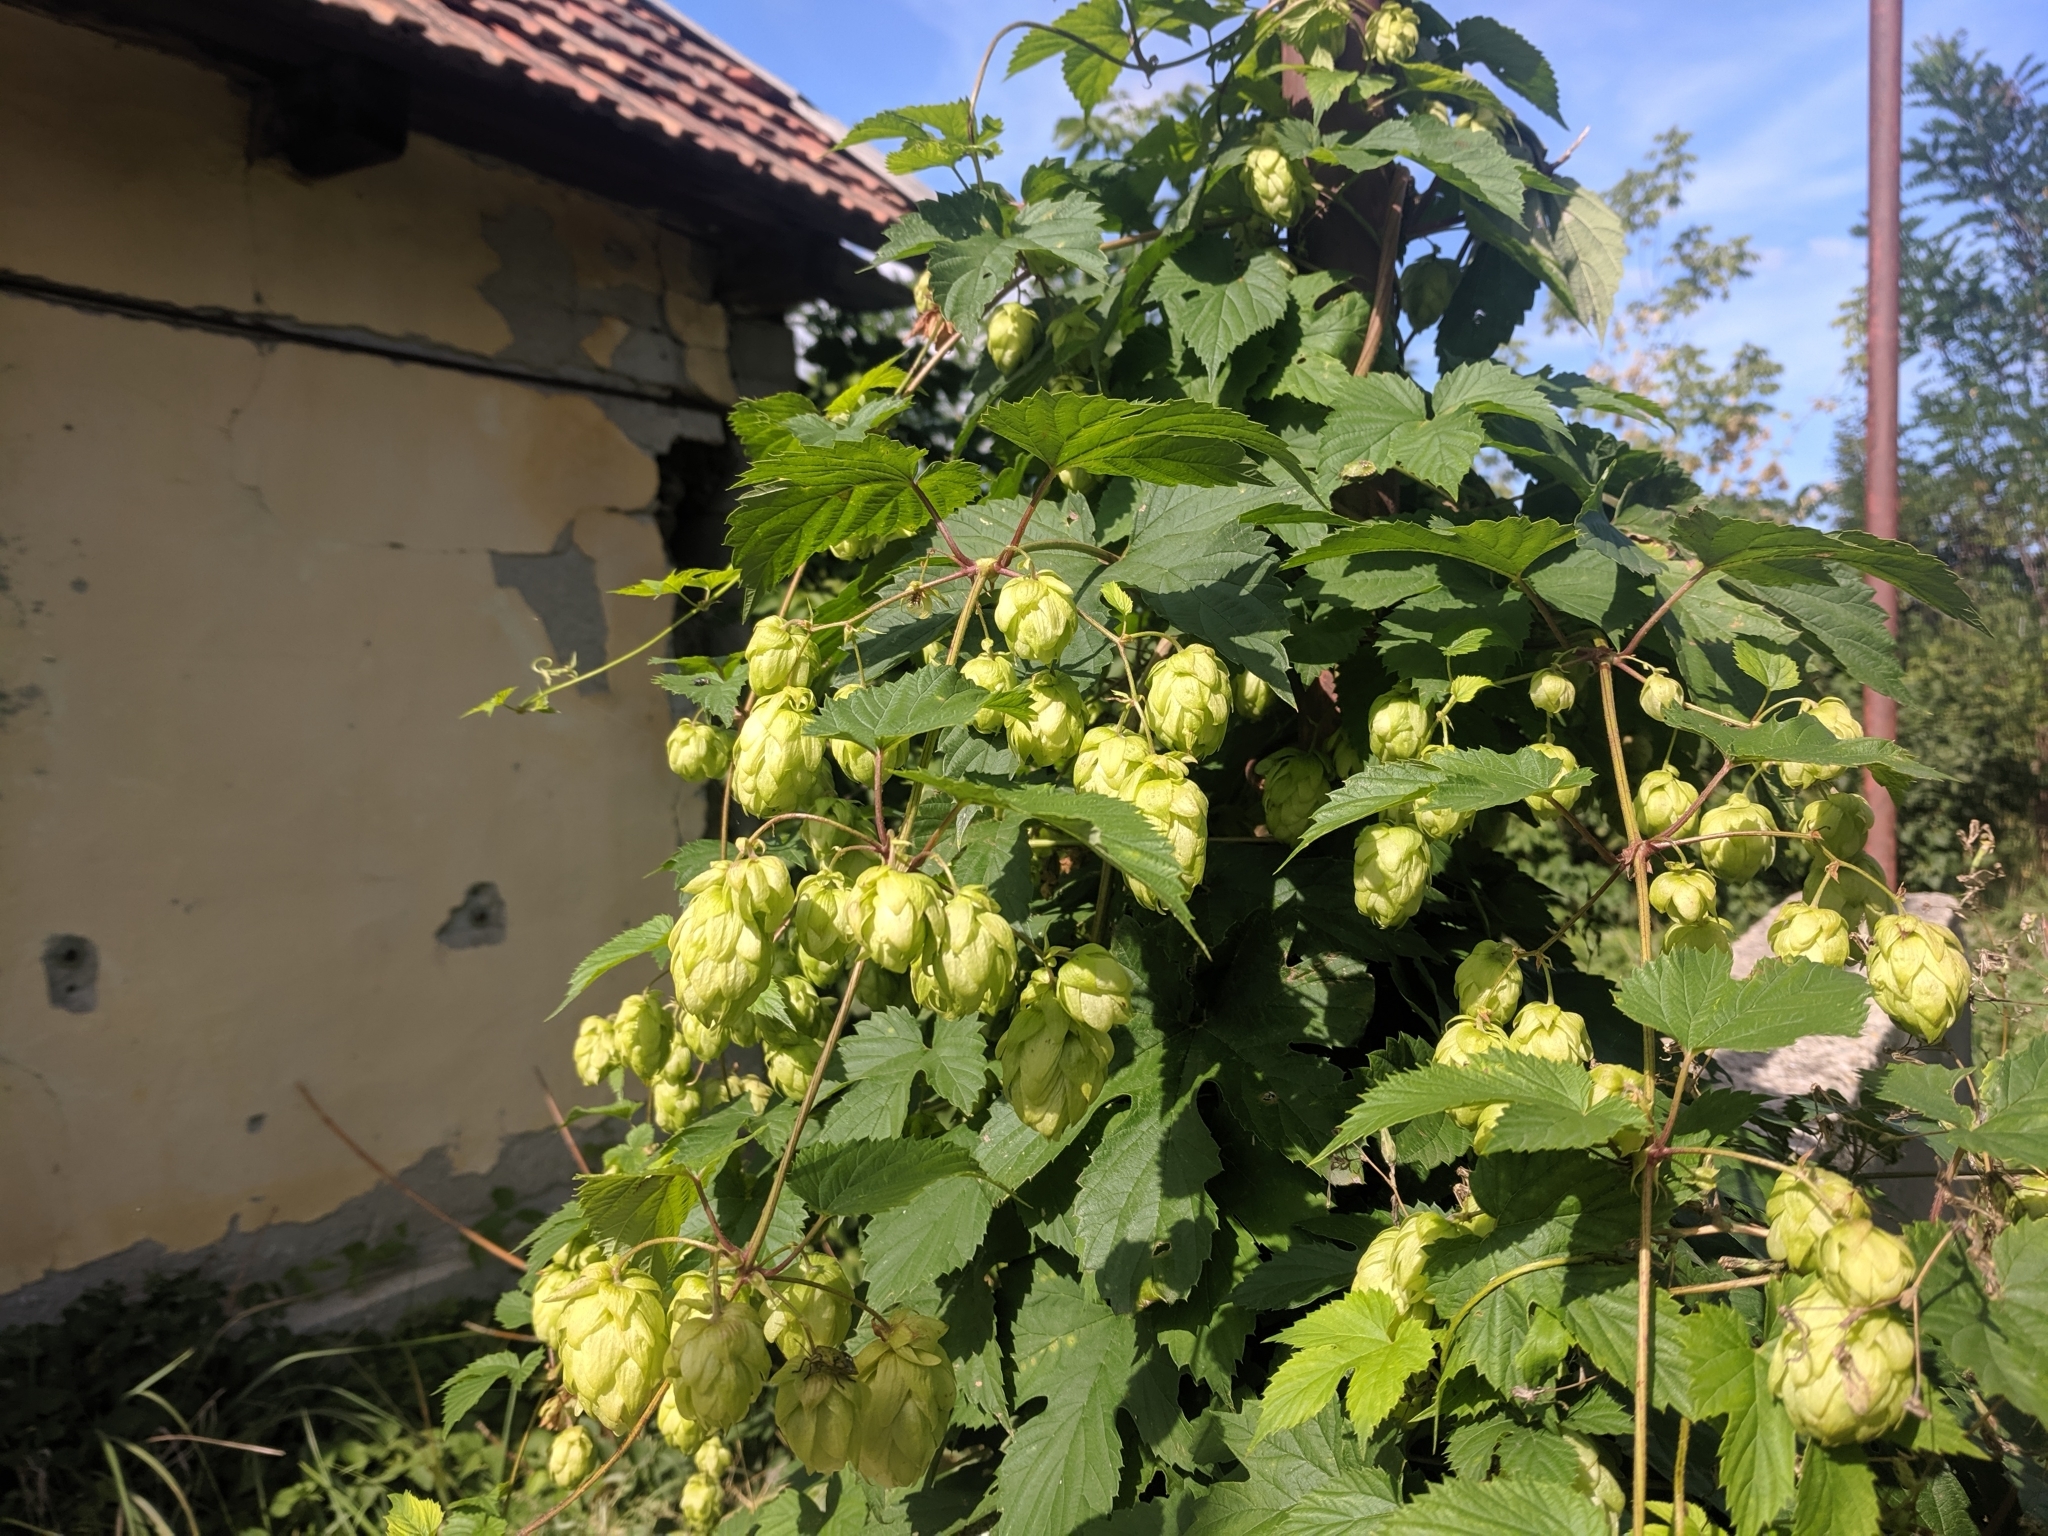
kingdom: Plantae
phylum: Tracheophyta
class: Magnoliopsida
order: Rosales
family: Cannabaceae
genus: Humulus
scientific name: Humulus lupulus
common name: Hop
